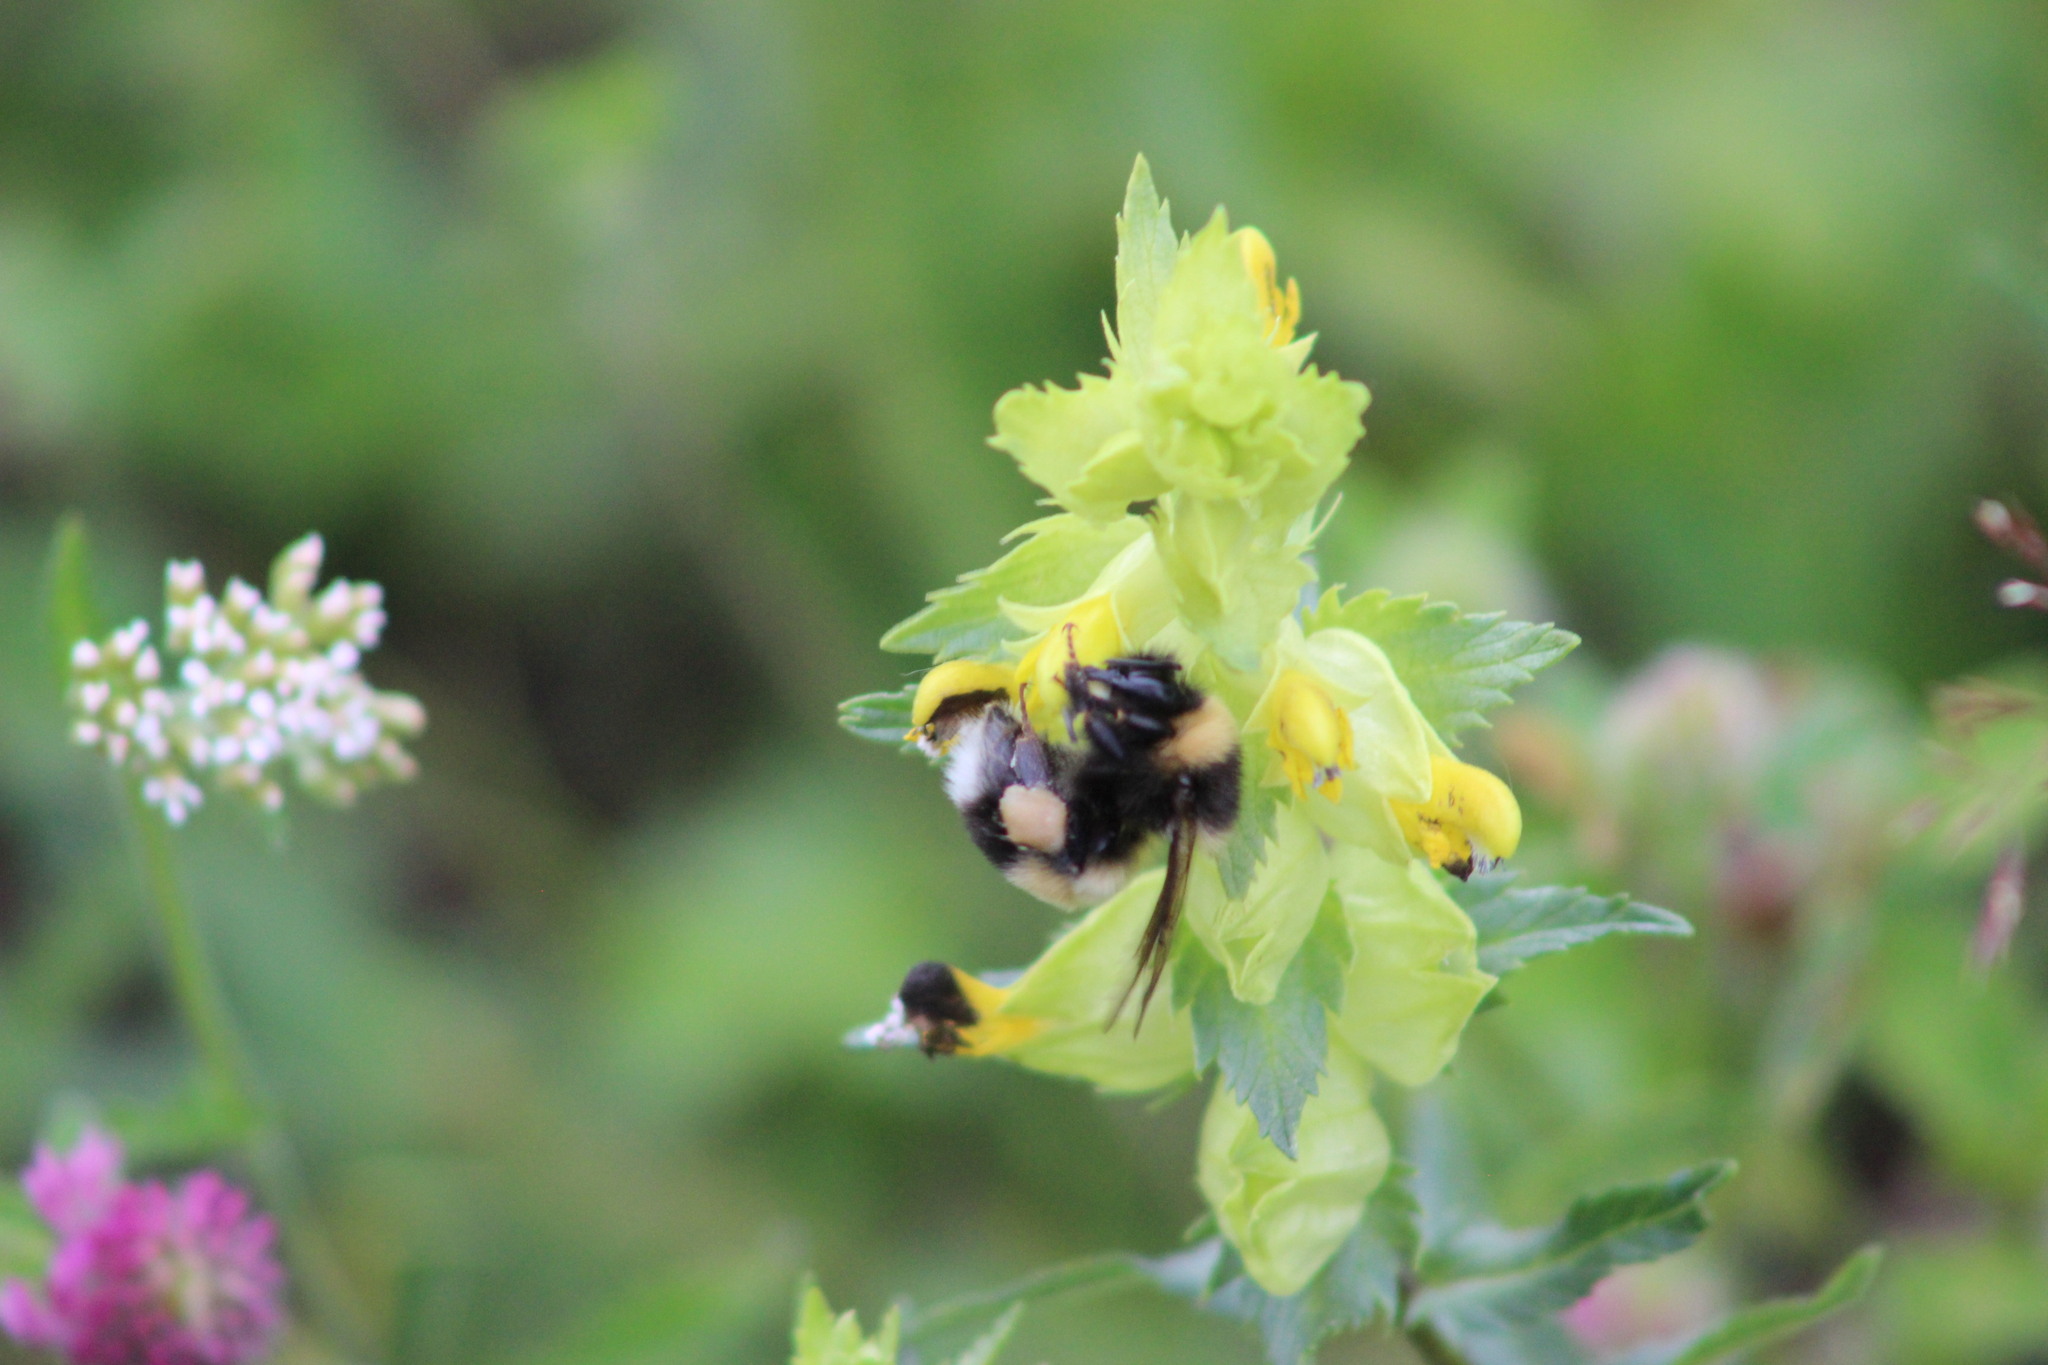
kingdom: Animalia
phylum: Arthropoda
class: Insecta
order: Hymenoptera
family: Apidae
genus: Bombus
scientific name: Bombus sporadicus
